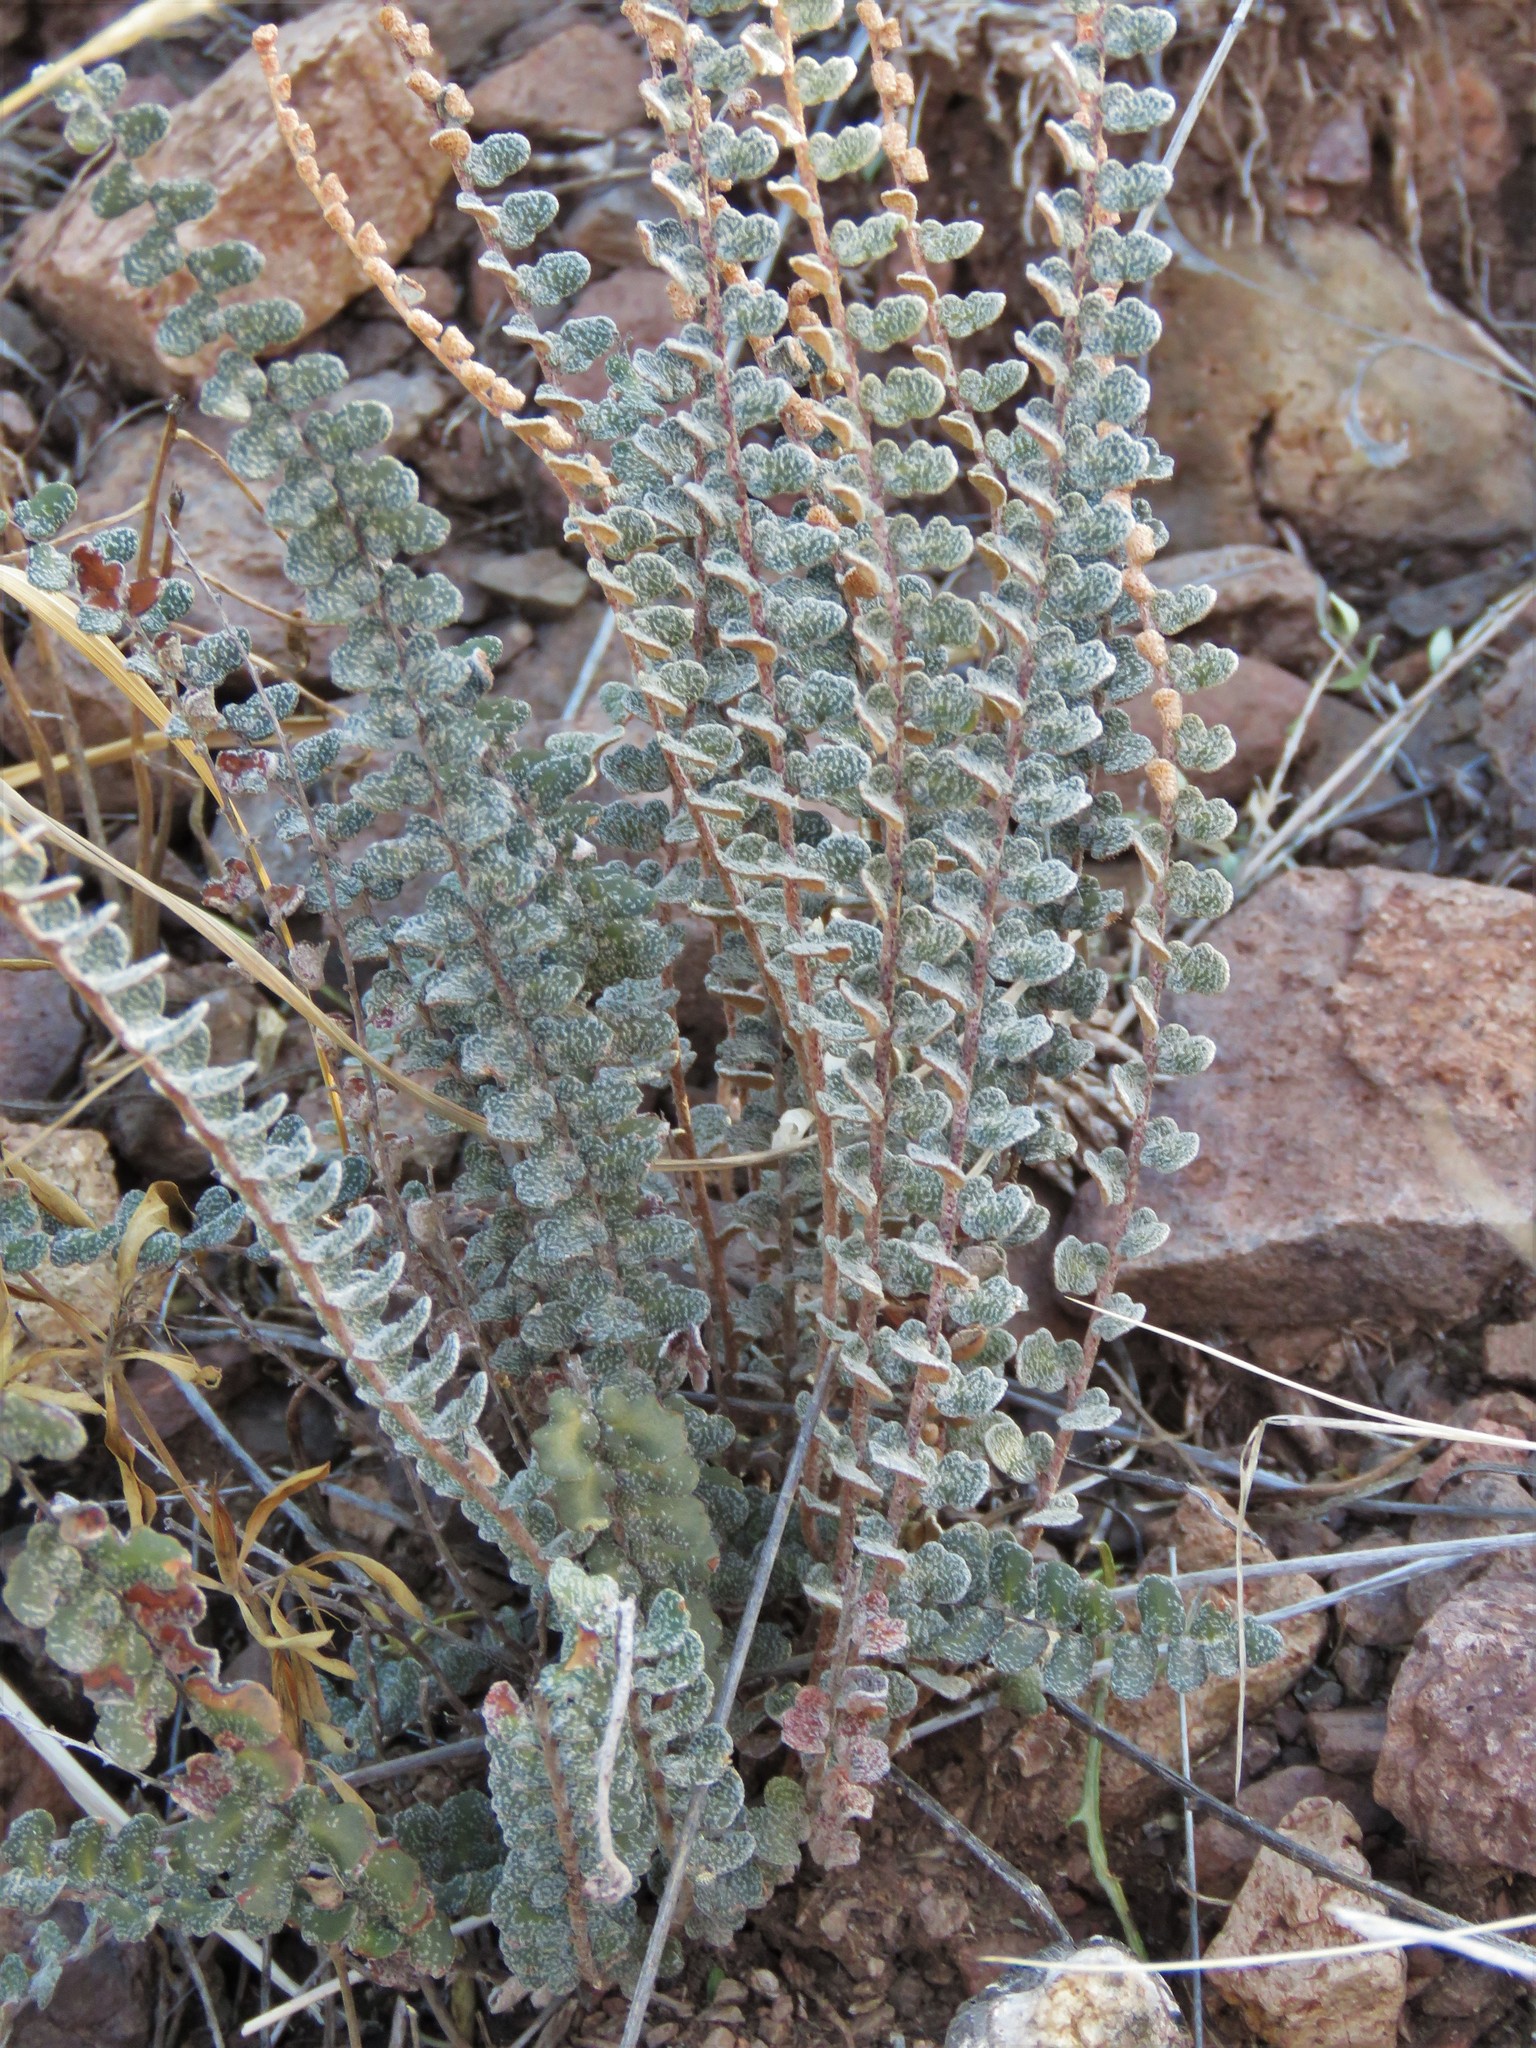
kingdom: Plantae
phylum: Tracheophyta
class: Polypodiopsida
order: Polypodiales
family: Pteridaceae
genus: Astrolepis
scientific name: Astrolepis cochisensis
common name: Scaly cloak fern
